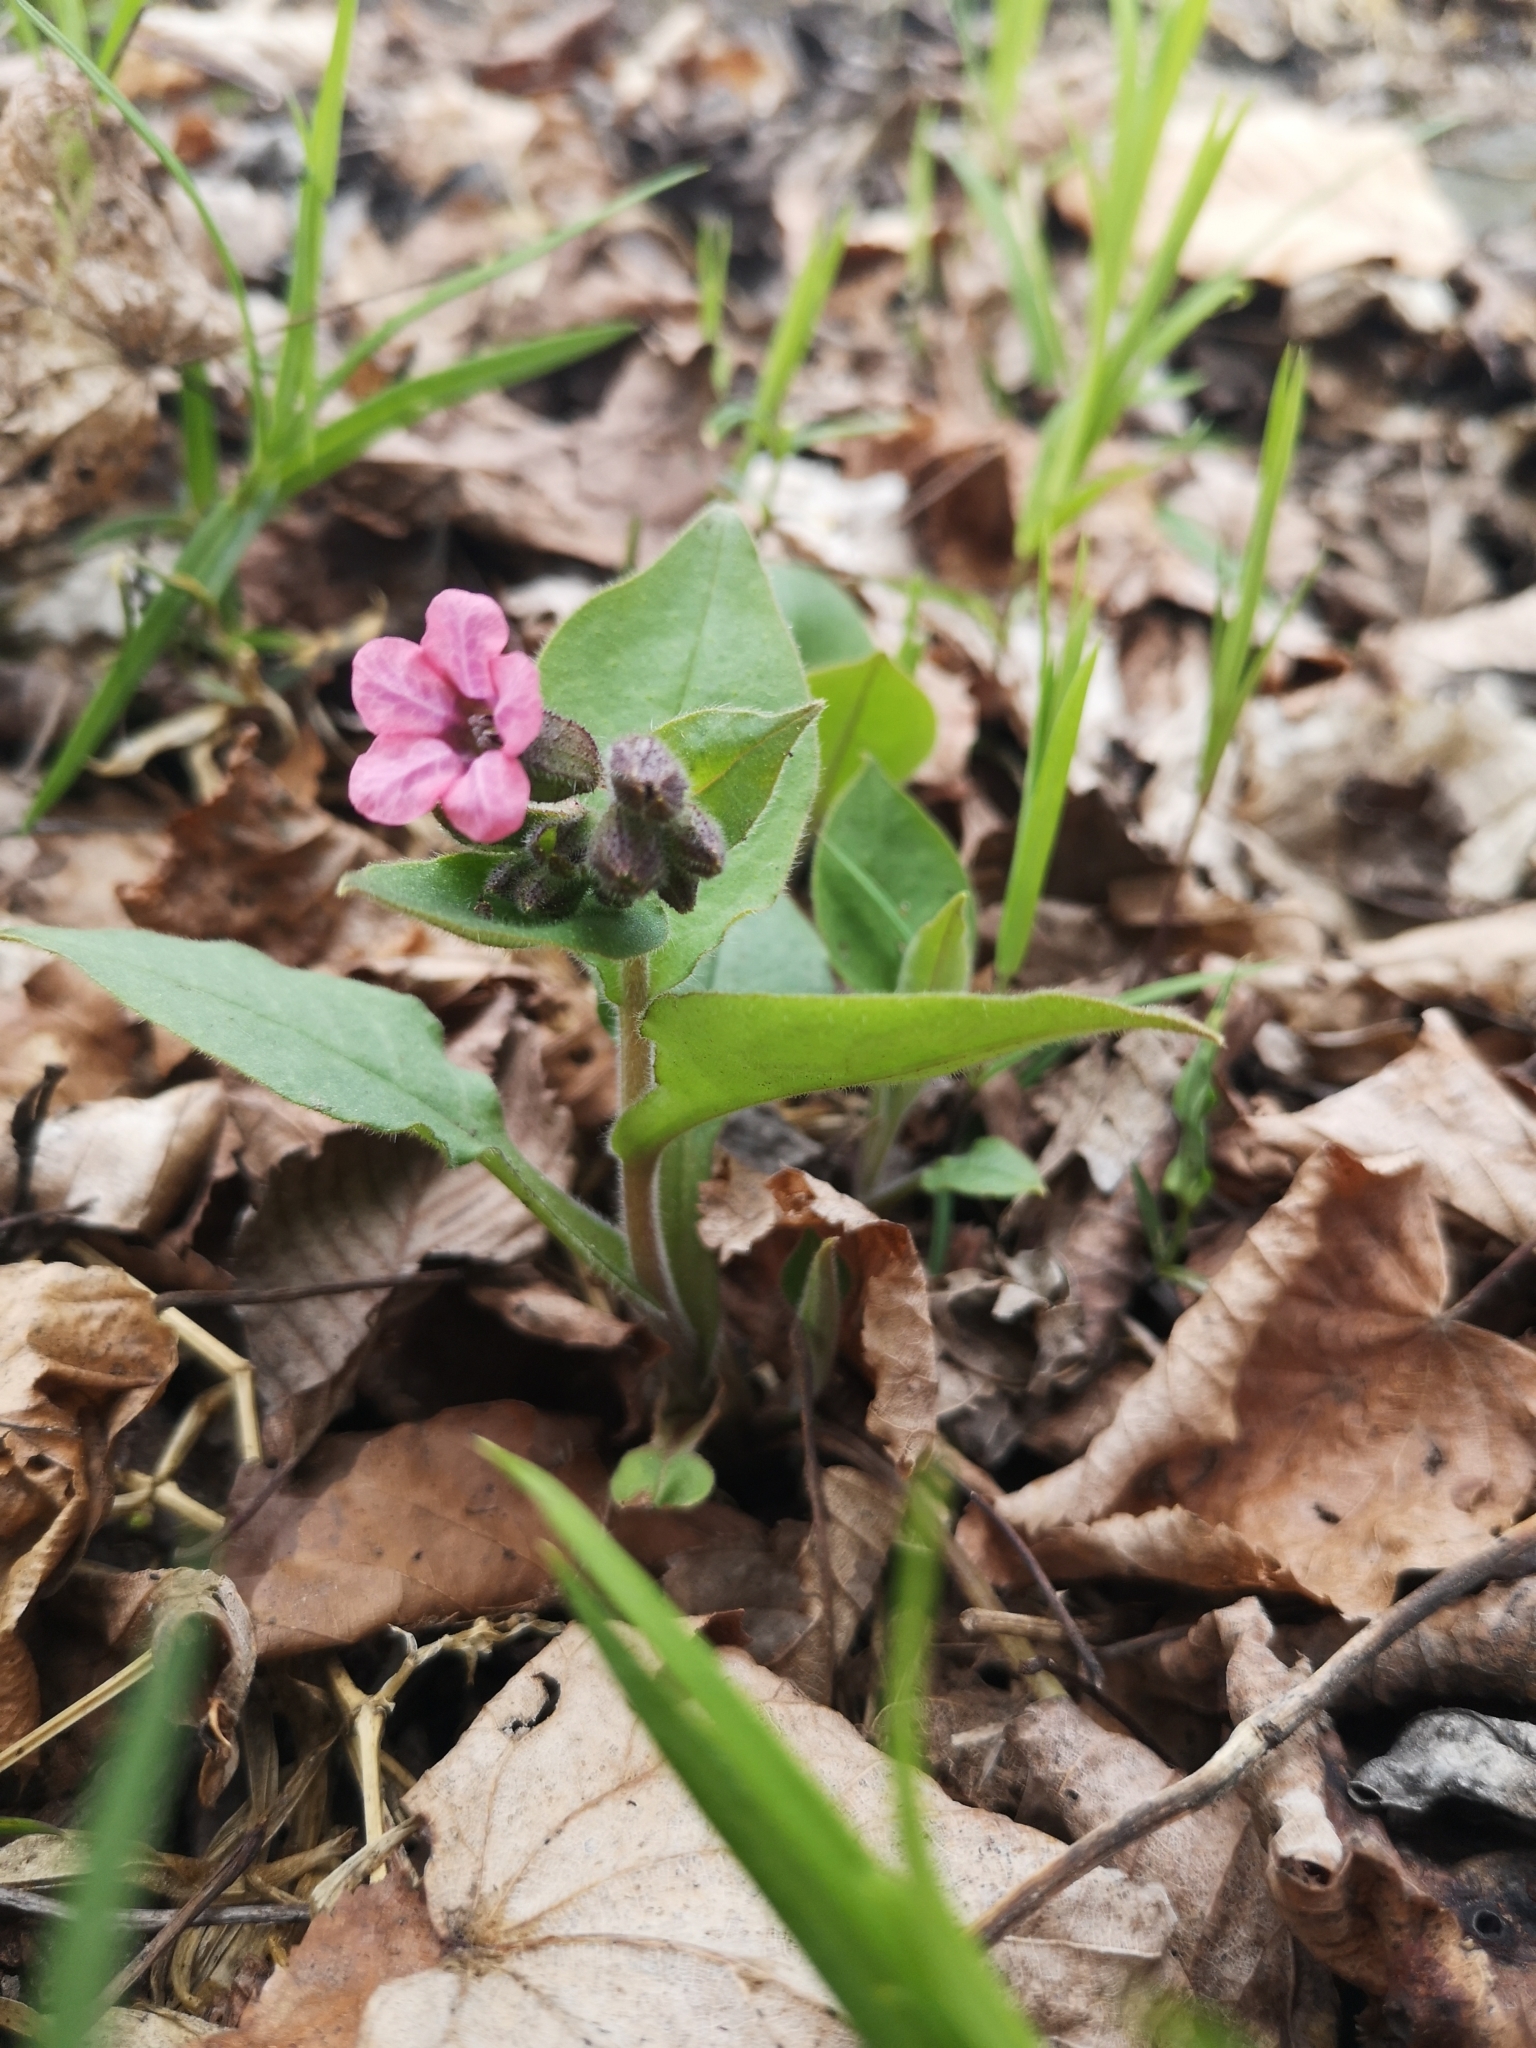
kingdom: Plantae
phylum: Tracheophyta
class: Magnoliopsida
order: Boraginales
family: Boraginaceae
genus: Pulmonaria
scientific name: Pulmonaria obscura
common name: Suffolk lungwort
